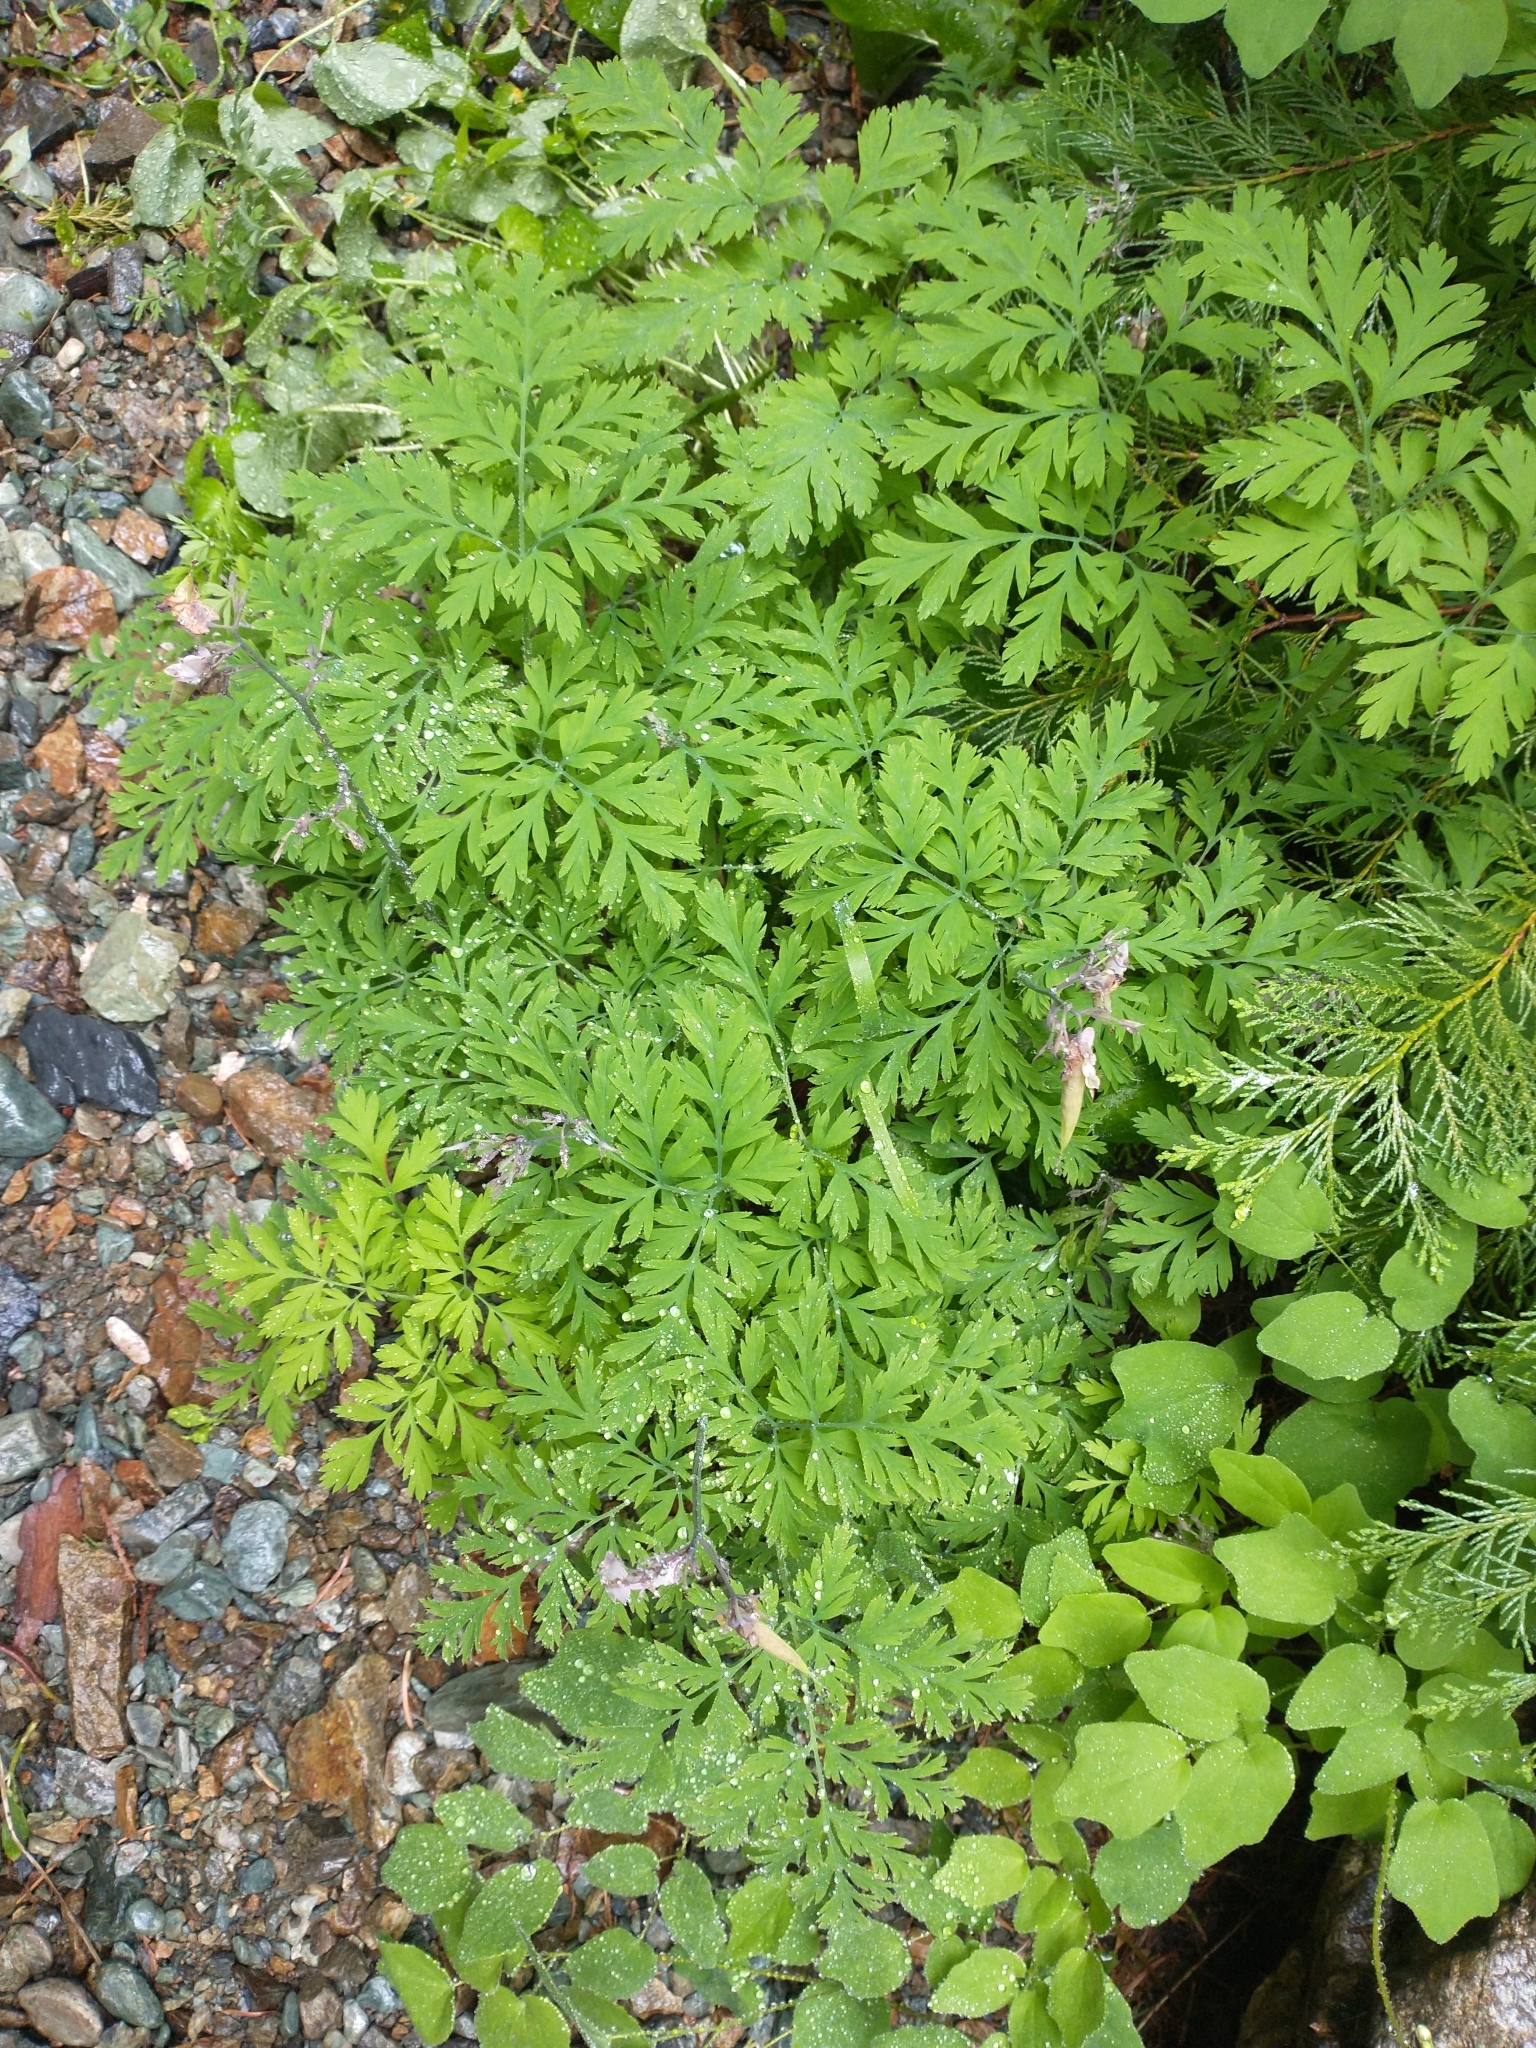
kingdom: Plantae
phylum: Tracheophyta
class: Magnoliopsida
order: Ranunculales
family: Papaveraceae
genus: Dicentra
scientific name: Dicentra formosa
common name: Bleeding-heart
